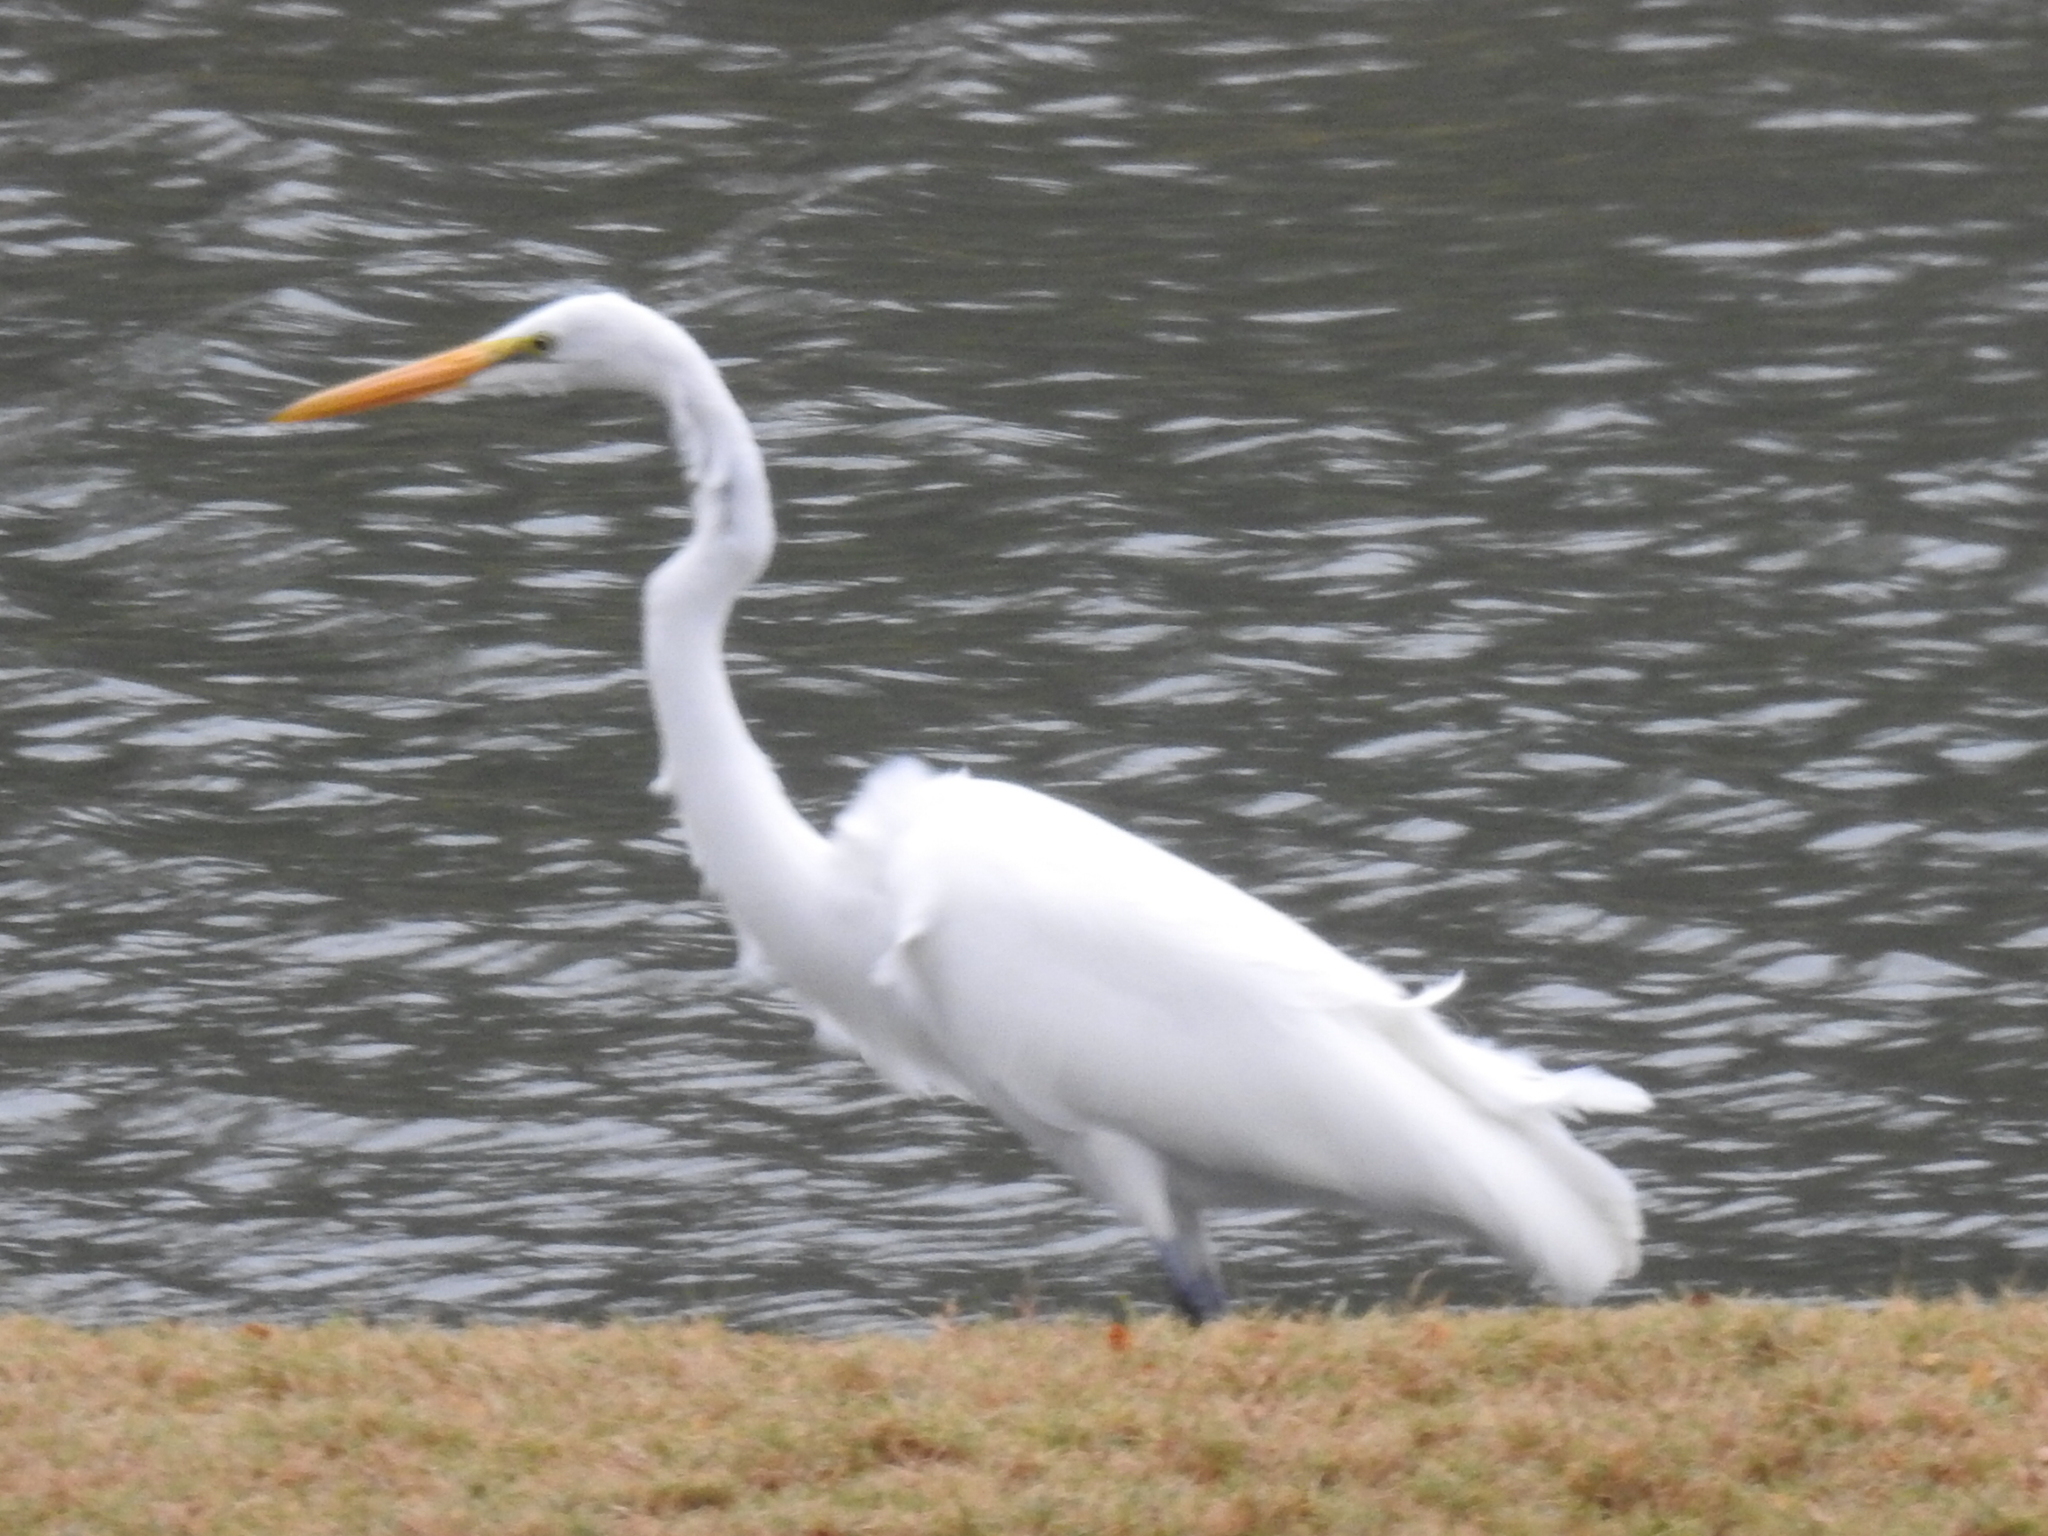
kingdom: Animalia
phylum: Chordata
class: Aves
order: Pelecaniformes
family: Ardeidae
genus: Ardea
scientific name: Ardea alba
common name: Great egret
